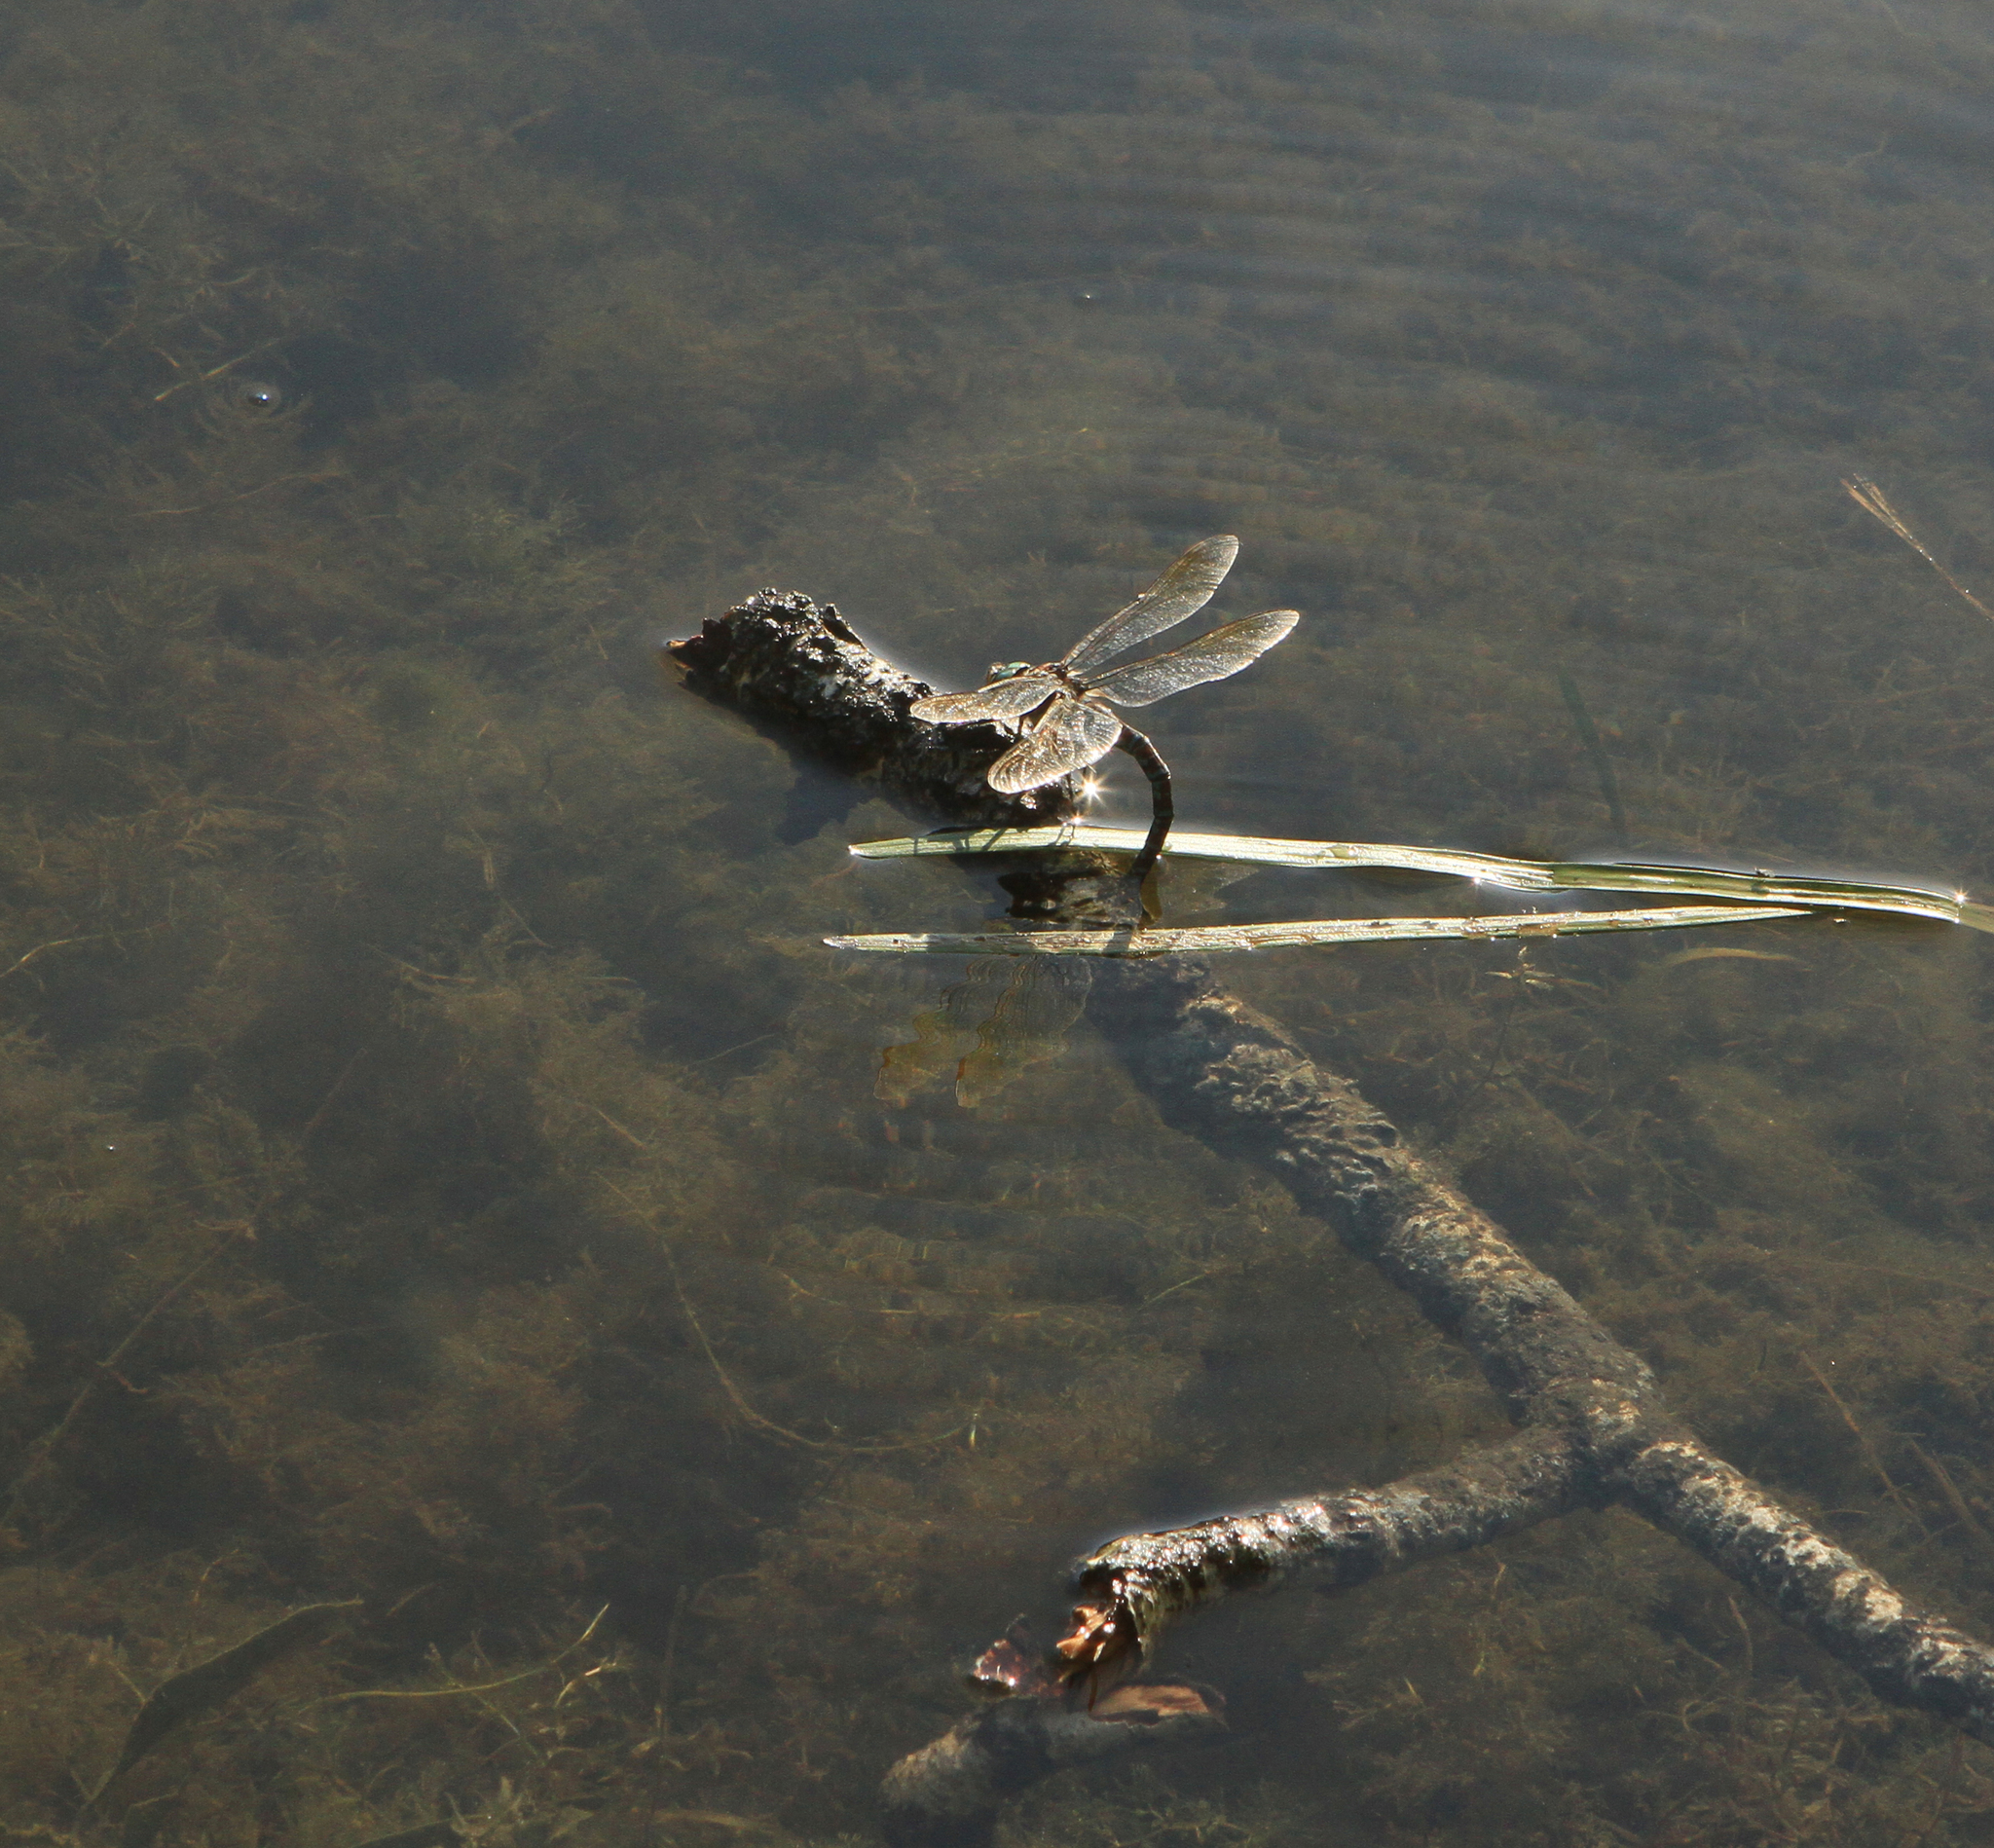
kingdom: Animalia
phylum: Arthropoda
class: Insecta
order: Odonata
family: Aeshnidae
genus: Aeshna
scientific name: Aeshna crenata
